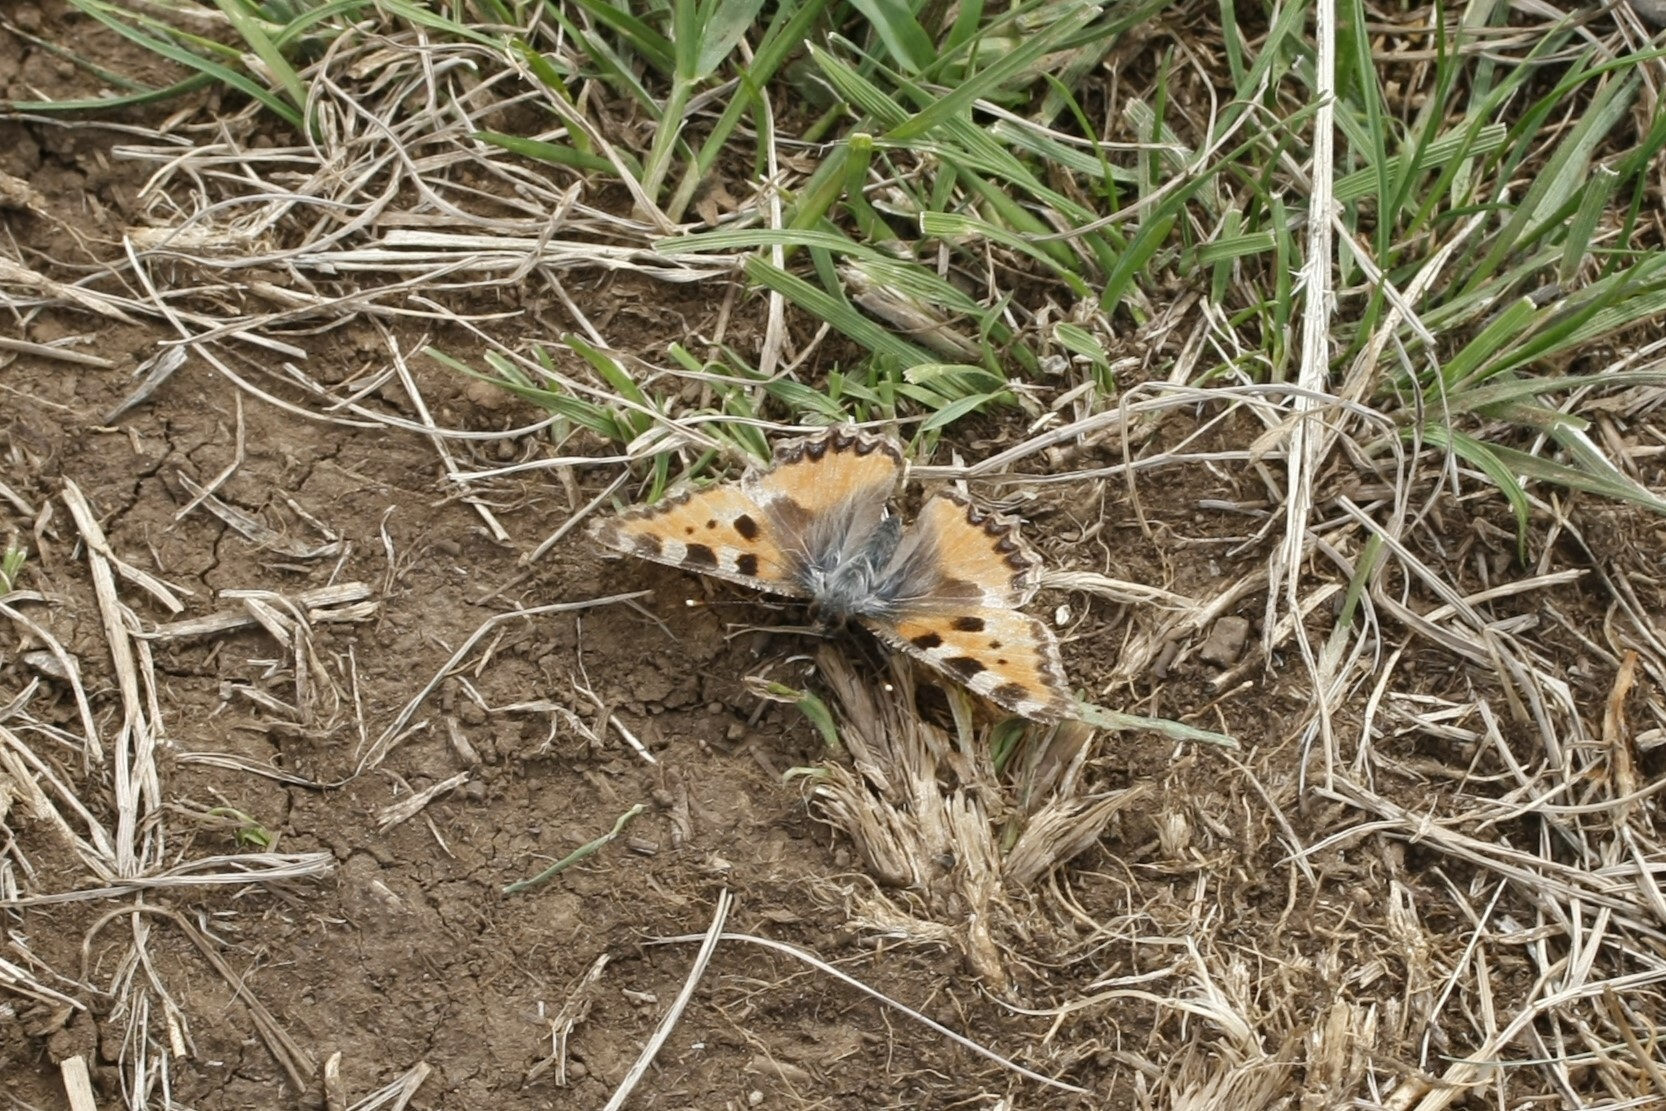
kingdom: Animalia
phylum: Arthropoda
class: Insecta
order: Lepidoptera
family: Nymphalidae
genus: Aglais
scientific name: Aglais urticae
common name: Small tortoiseshell
